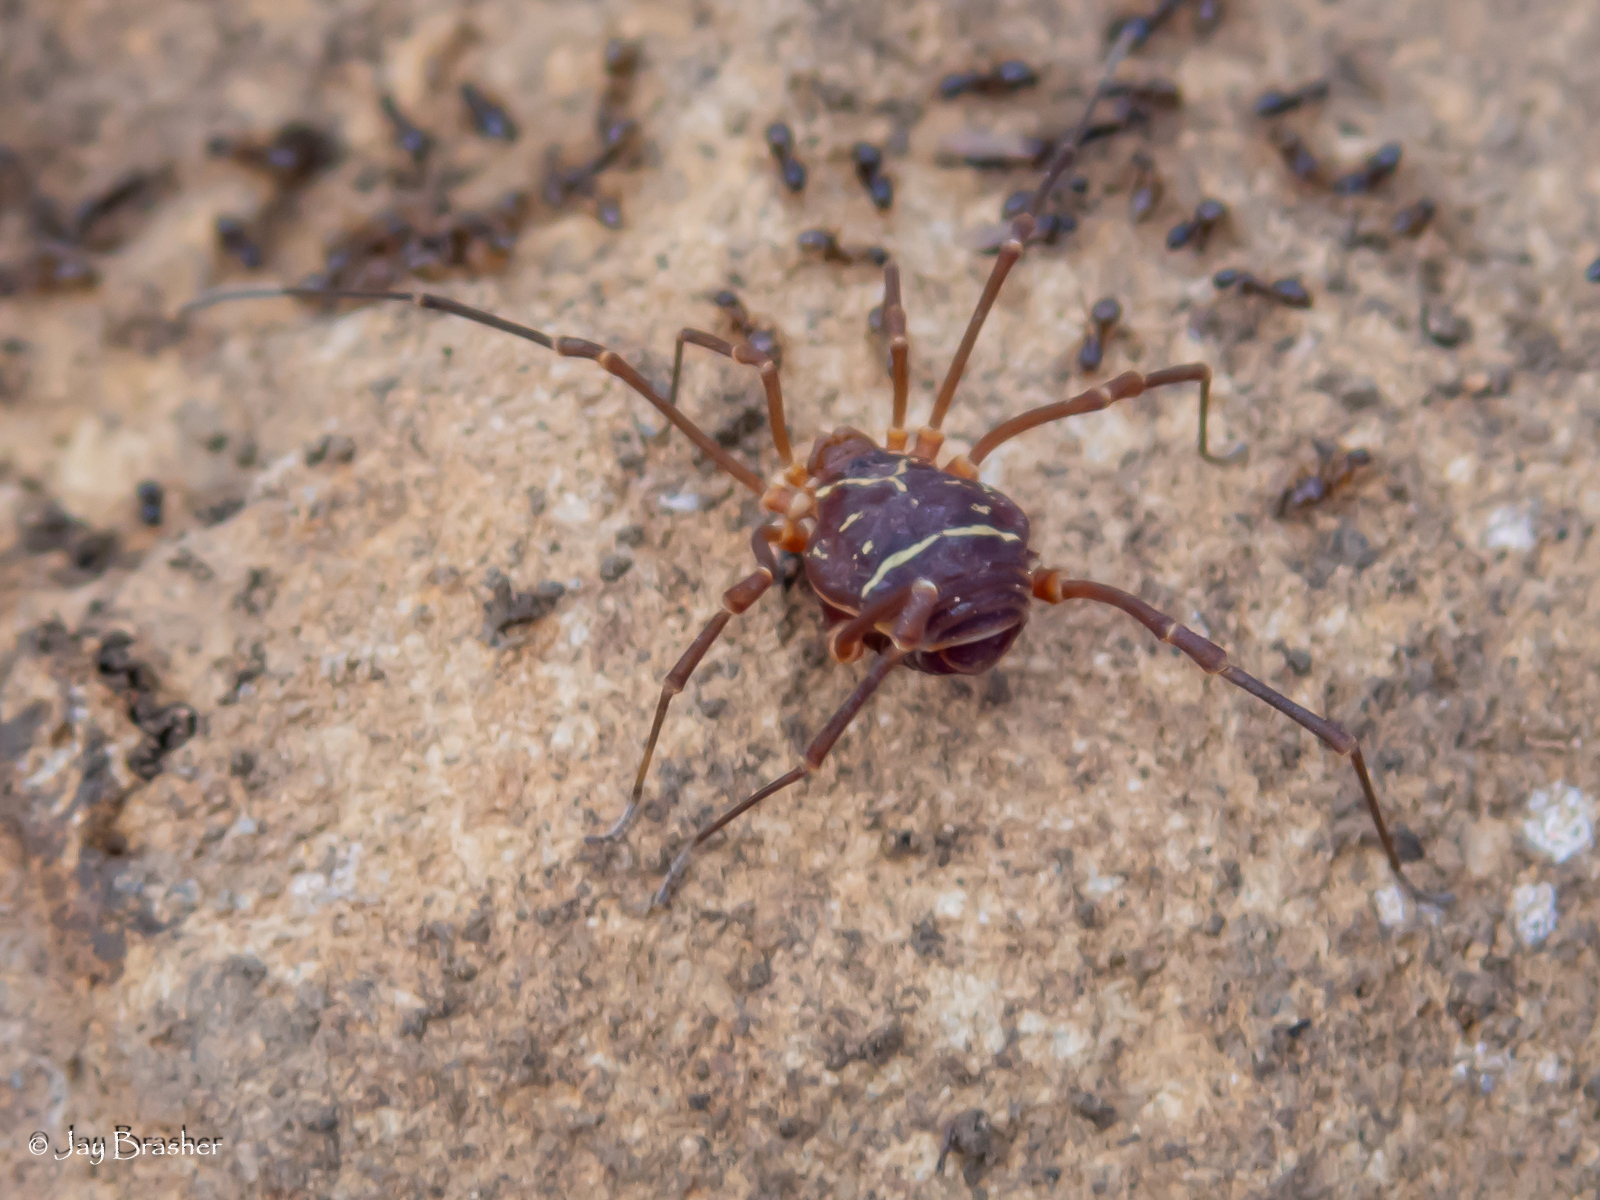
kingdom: Animalia
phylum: Arthropoda
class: Arachnida
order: Opiliones
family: Cosmetidae
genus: Libitioides
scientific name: Libitioides sayi
